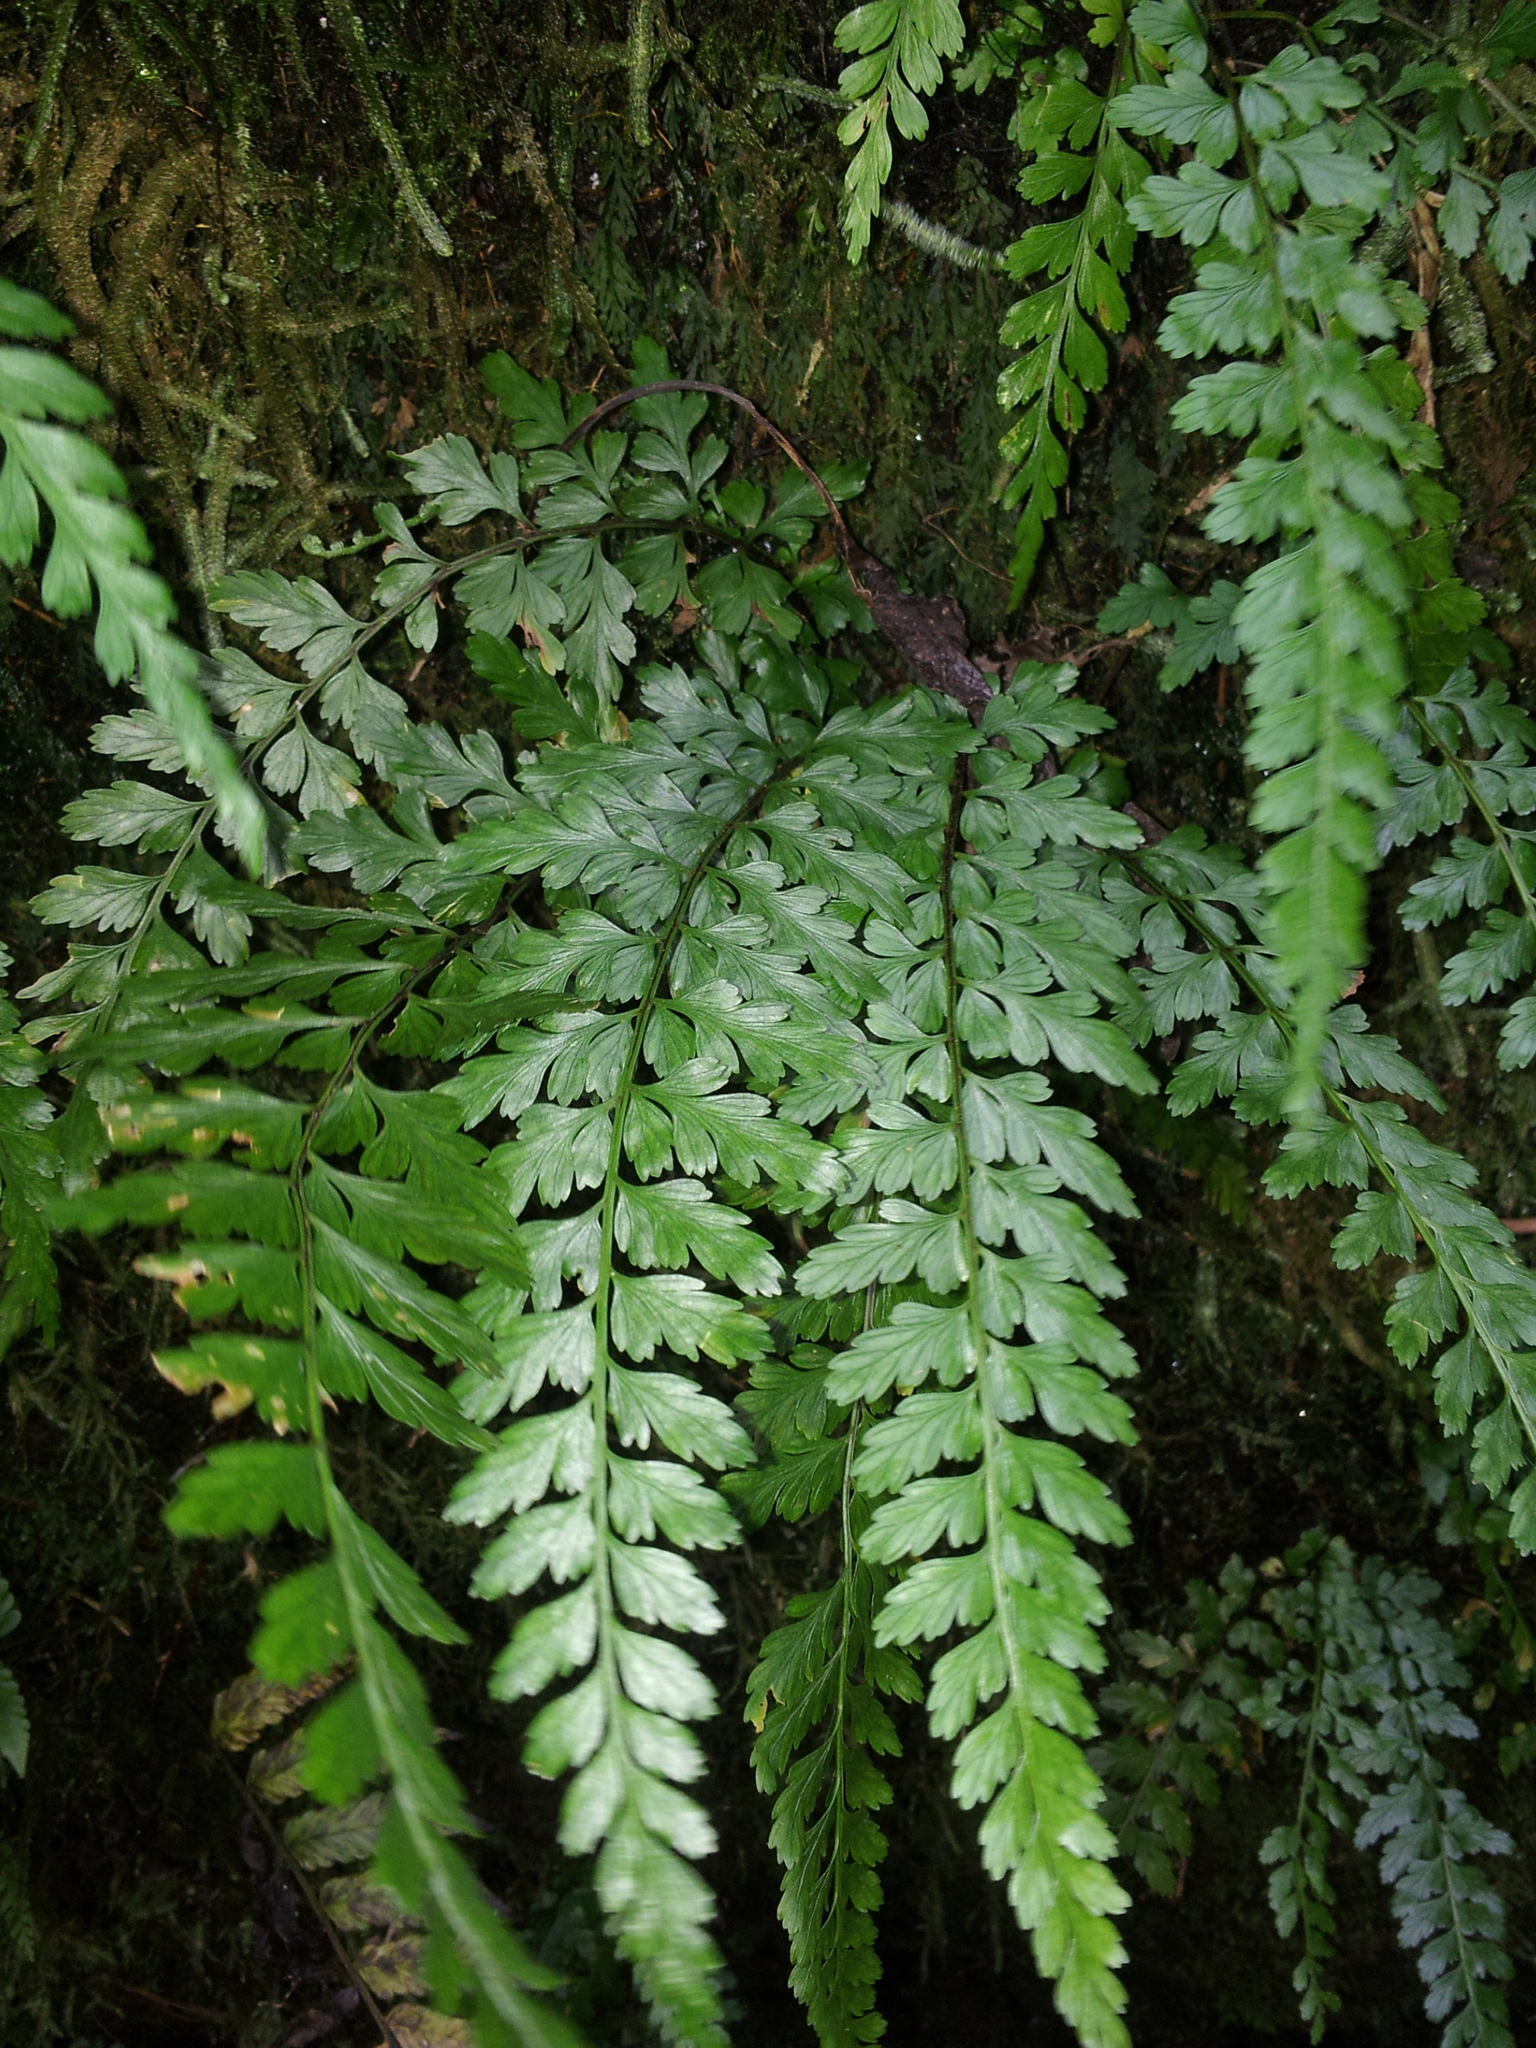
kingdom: Plantae
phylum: Tracheophyta
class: Polypodiopsida
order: Polypodiales
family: Aspleniaceae
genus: Asplenium
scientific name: Asplenium parksii
